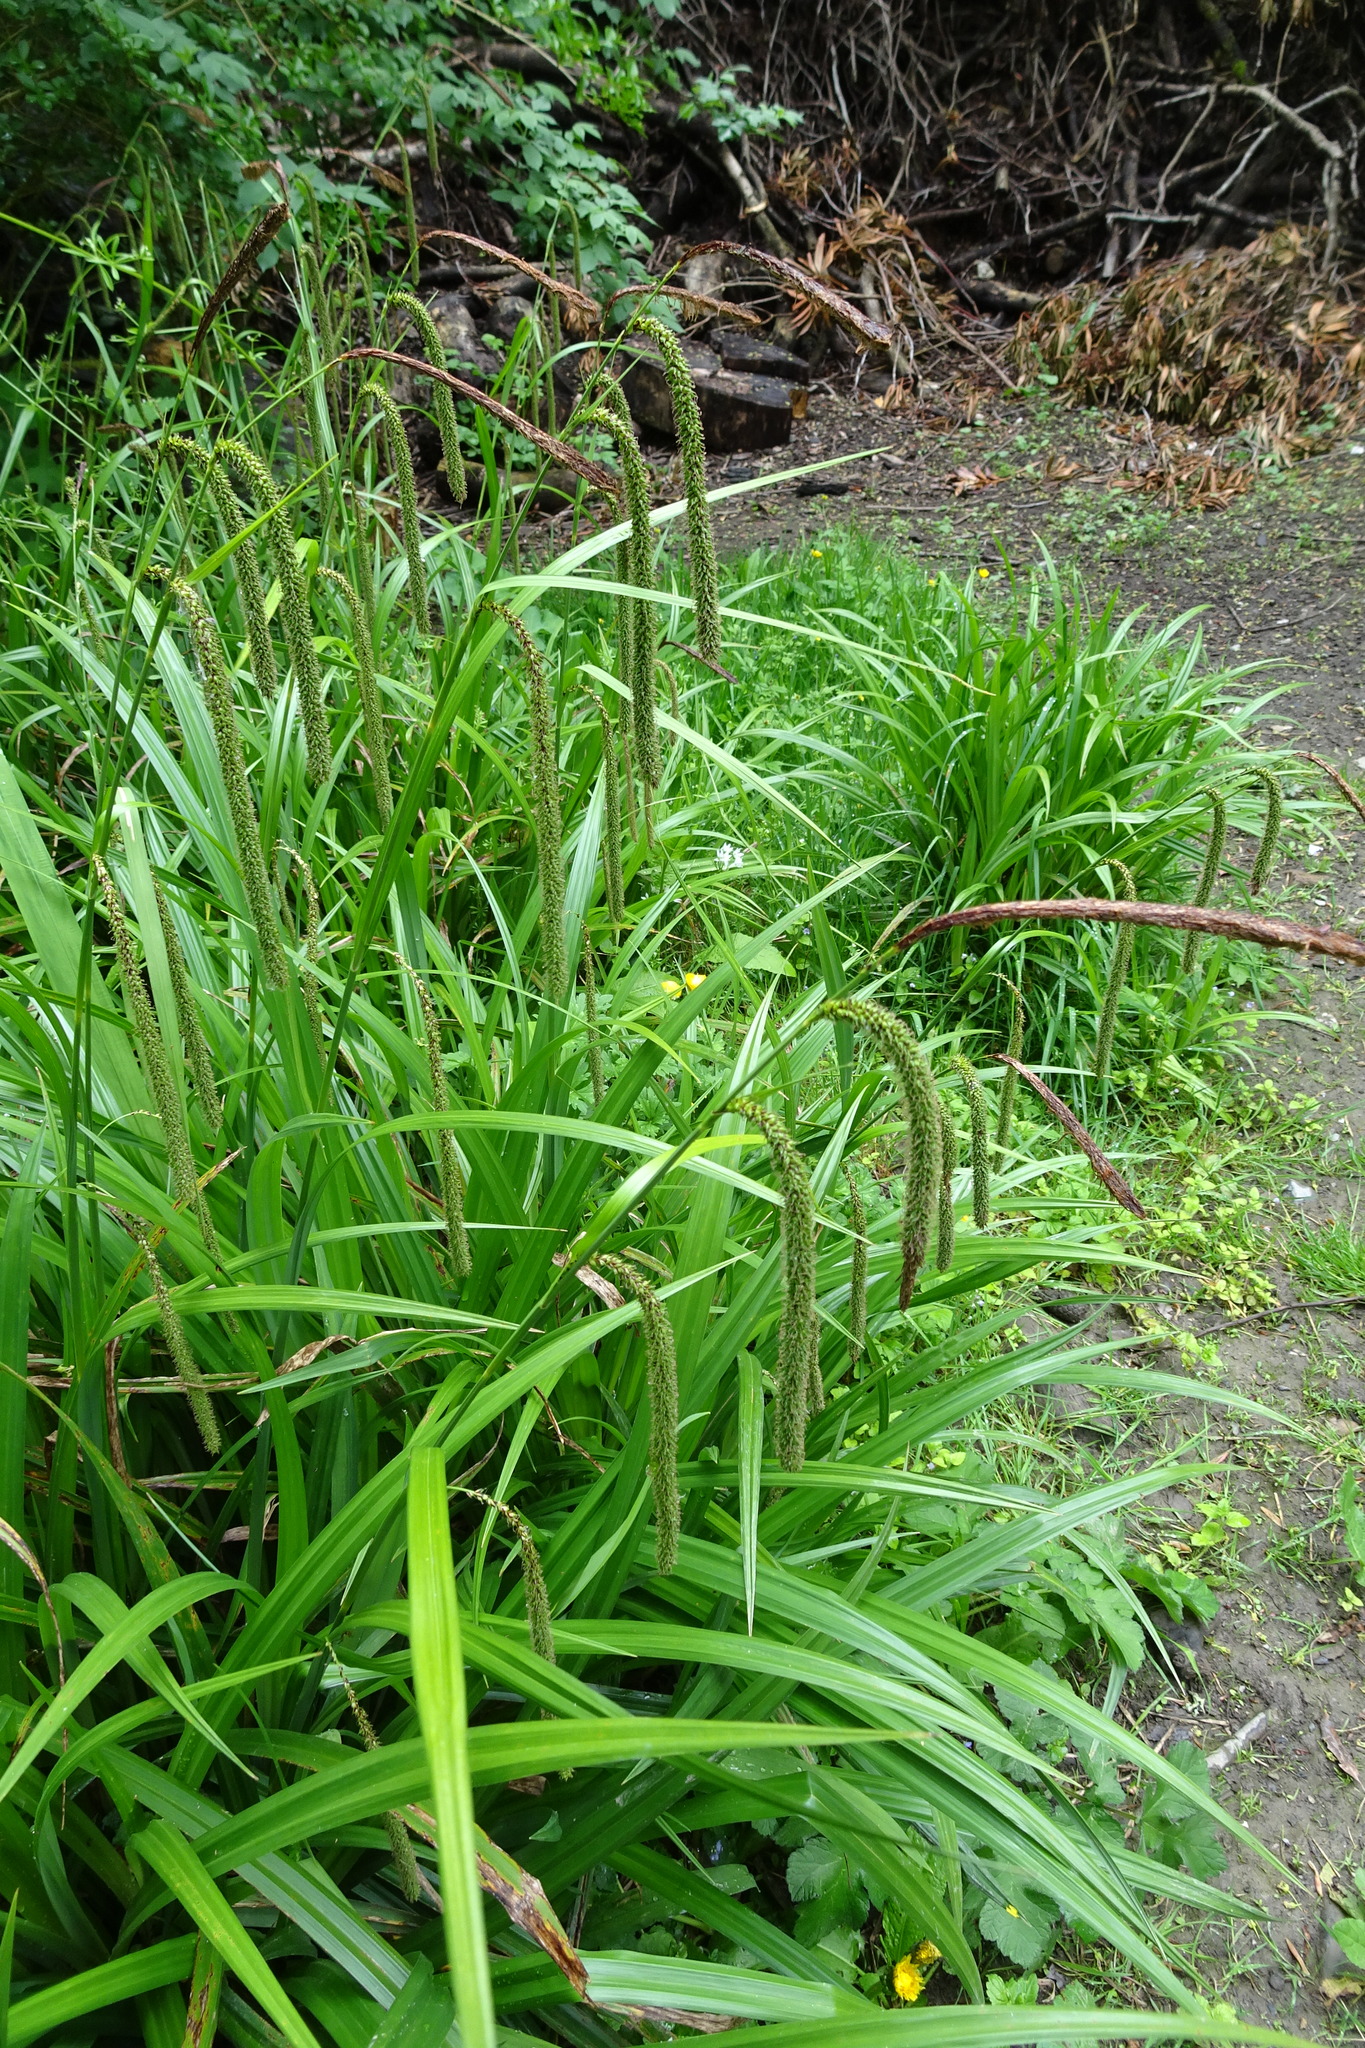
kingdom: Plantae
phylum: Tracheophyta
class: Liliopsida
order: Poales
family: Cyperaceae
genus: Carex
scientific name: Carex pendula
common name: Pendulous sedge
